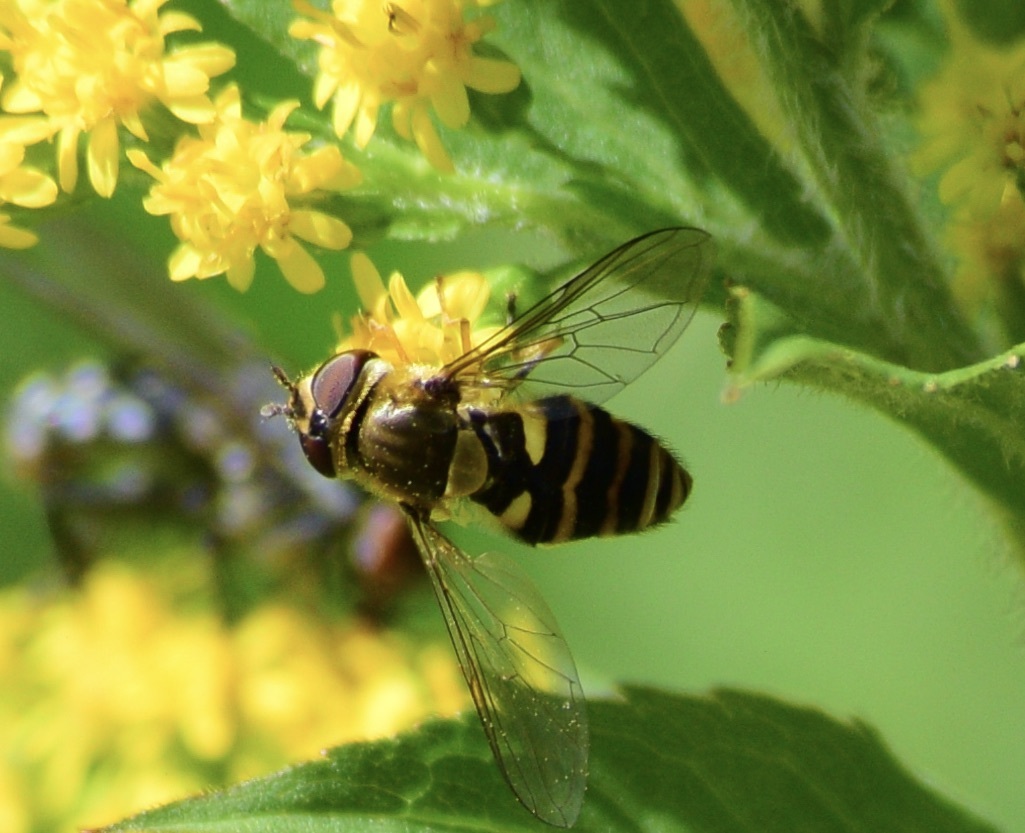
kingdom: Animalia
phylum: Arthropoda
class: Insecta
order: Diptera
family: Syrphidae
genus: Syrphus
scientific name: Syrphus
